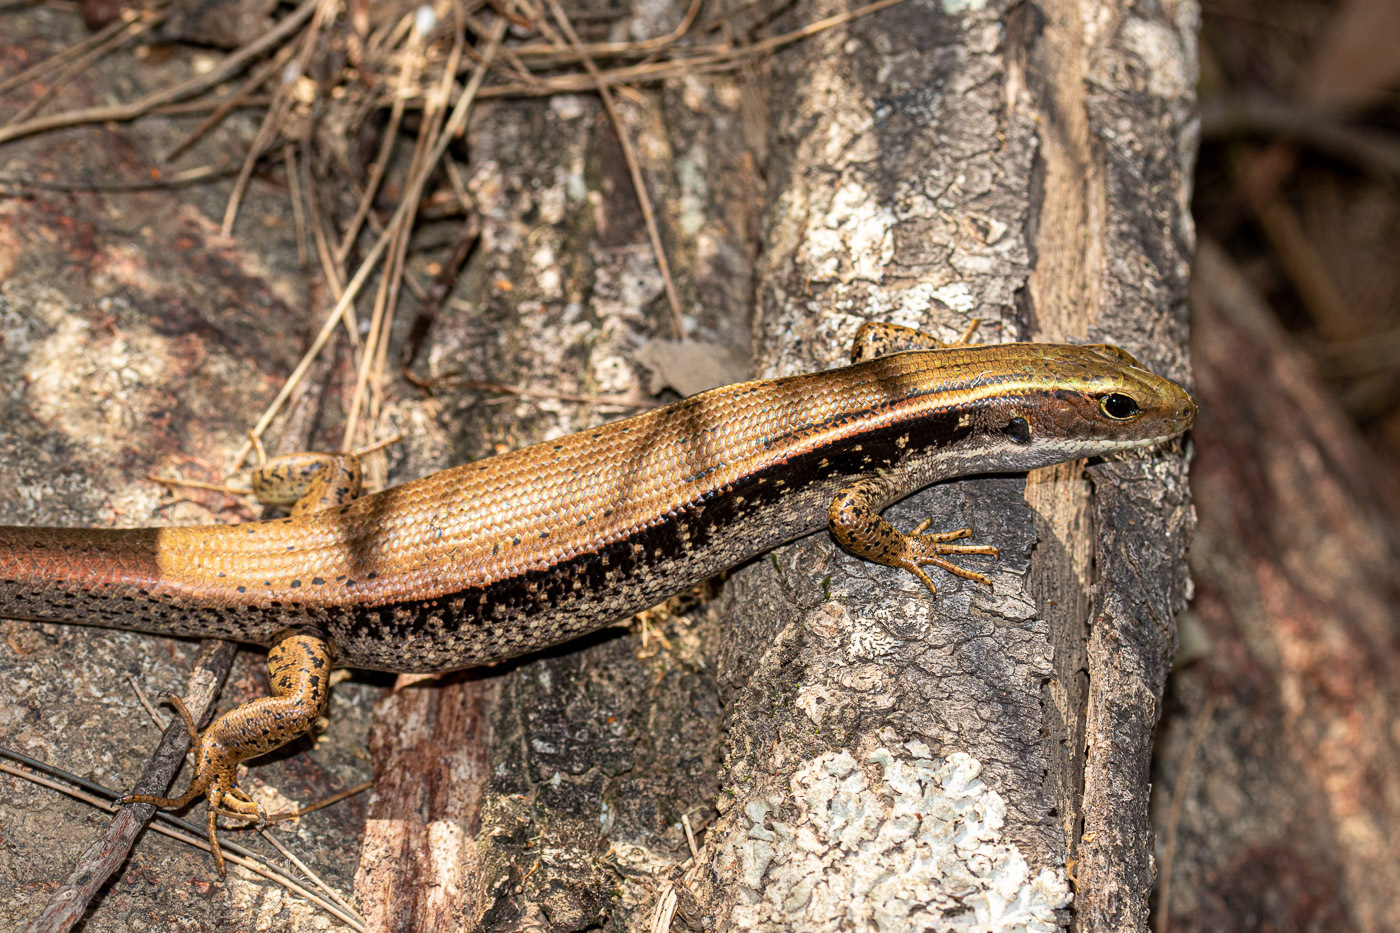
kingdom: Animalia
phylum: Chordata
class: Squamata
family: Scincidae
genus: Eulamprus
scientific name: Eulamprus quoyii
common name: Eastern water skink
